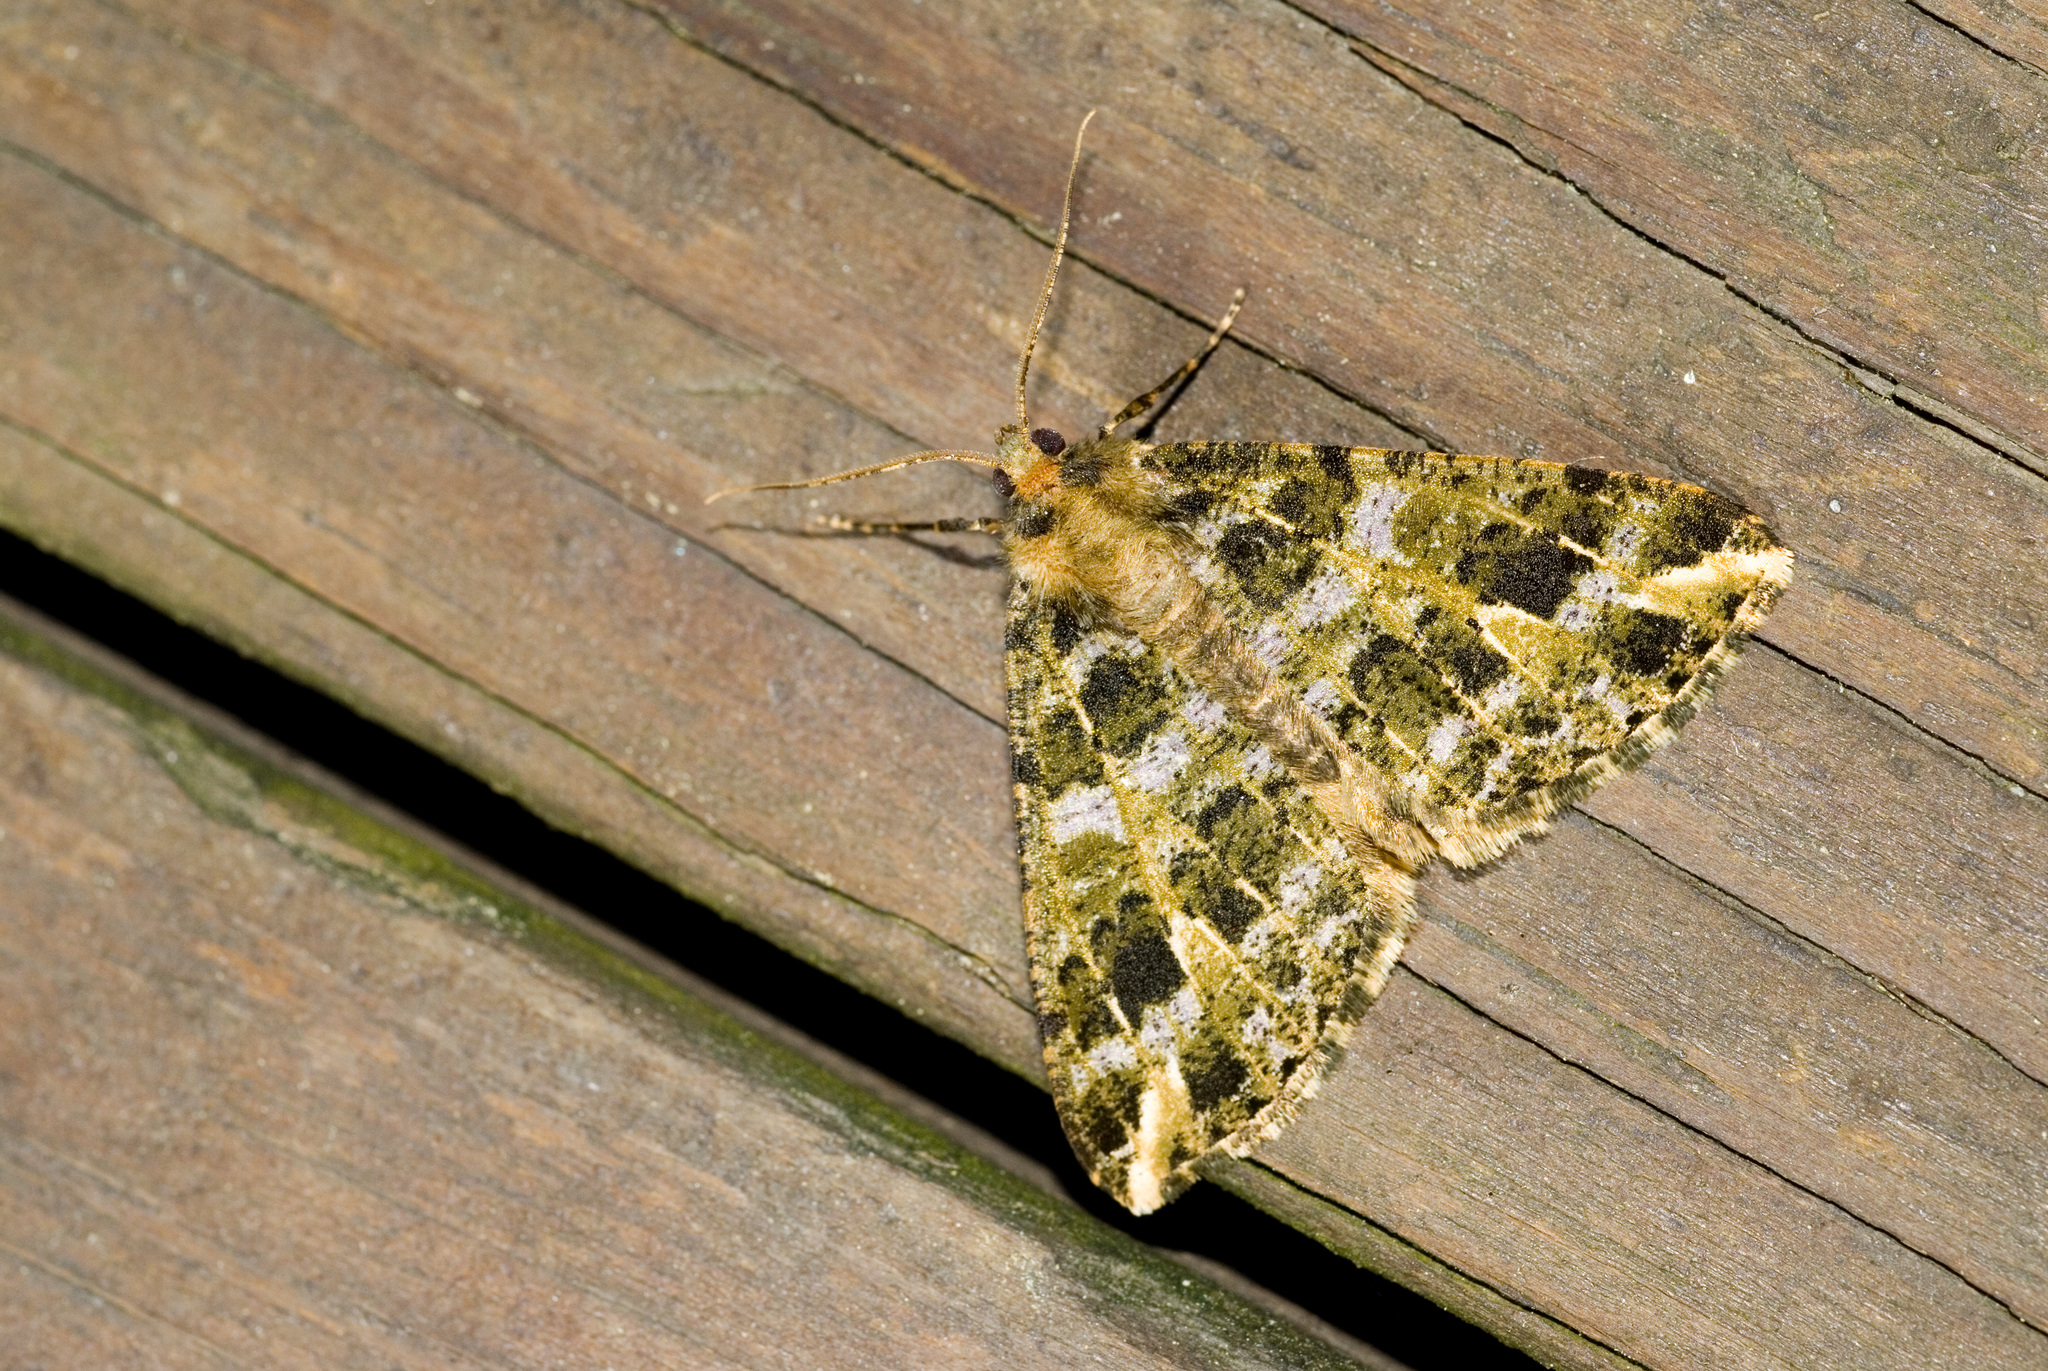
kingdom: Animalia
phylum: Arthropoda
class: Insecta
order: Lepidoptera
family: Geometridae
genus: Arichanna
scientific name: Arichanna marginata
